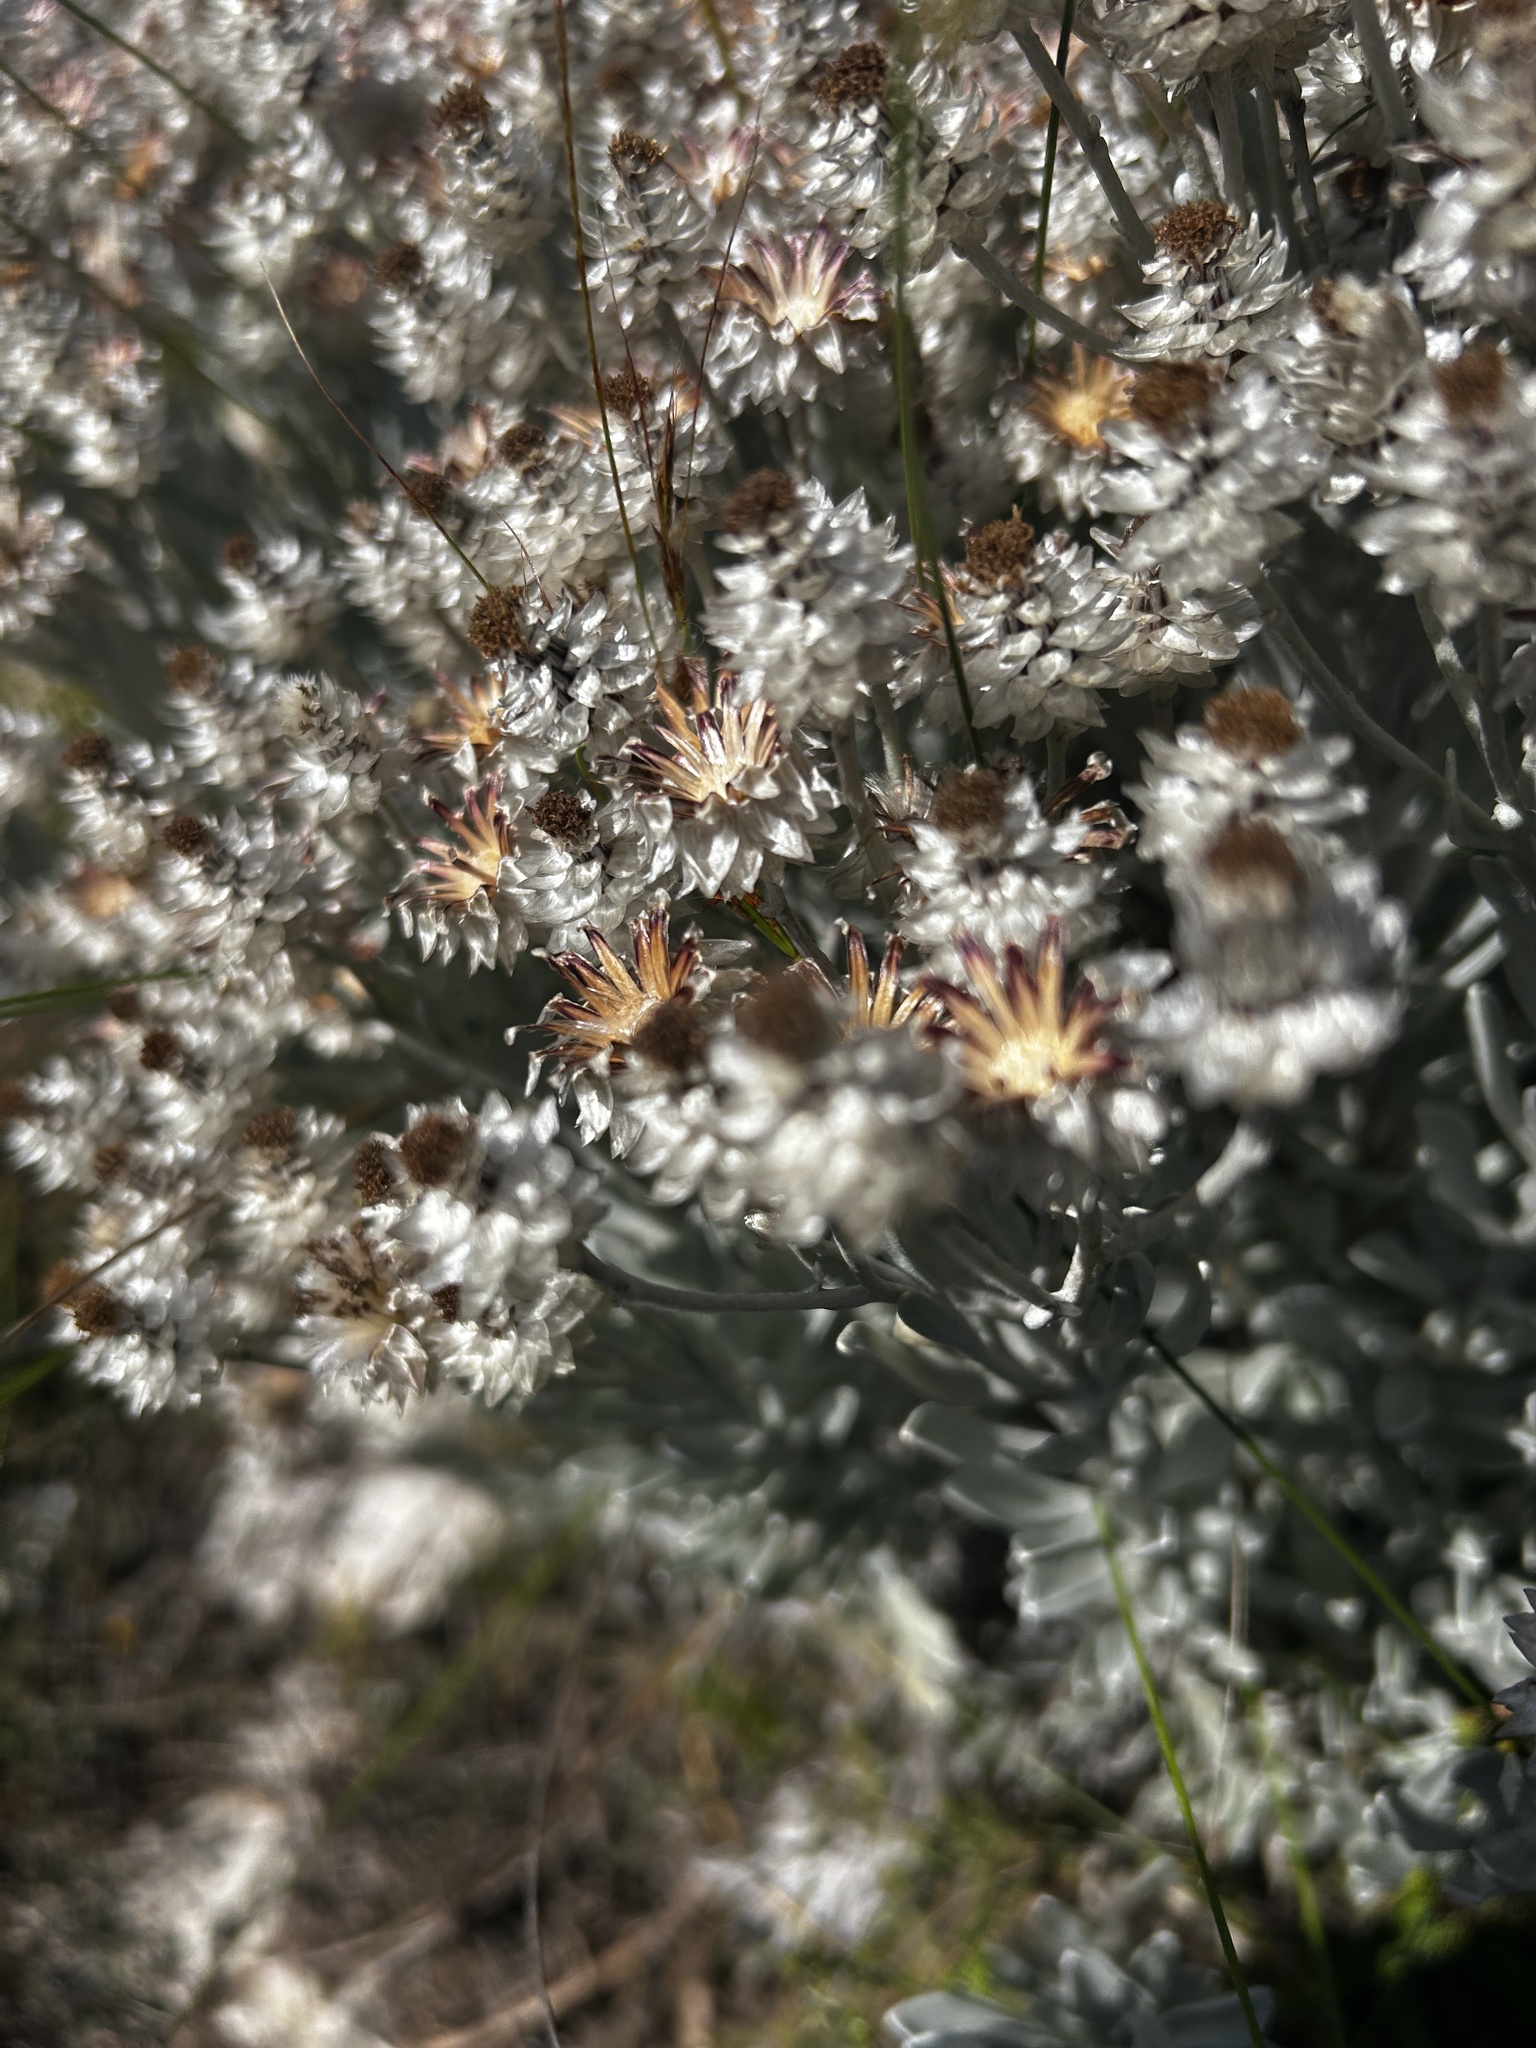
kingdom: Plantae
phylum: Tracheophyta
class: Magnoliopsida
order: Asterales
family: Asteraceae
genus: Syncarpha
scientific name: Syncarpha argyropsis
